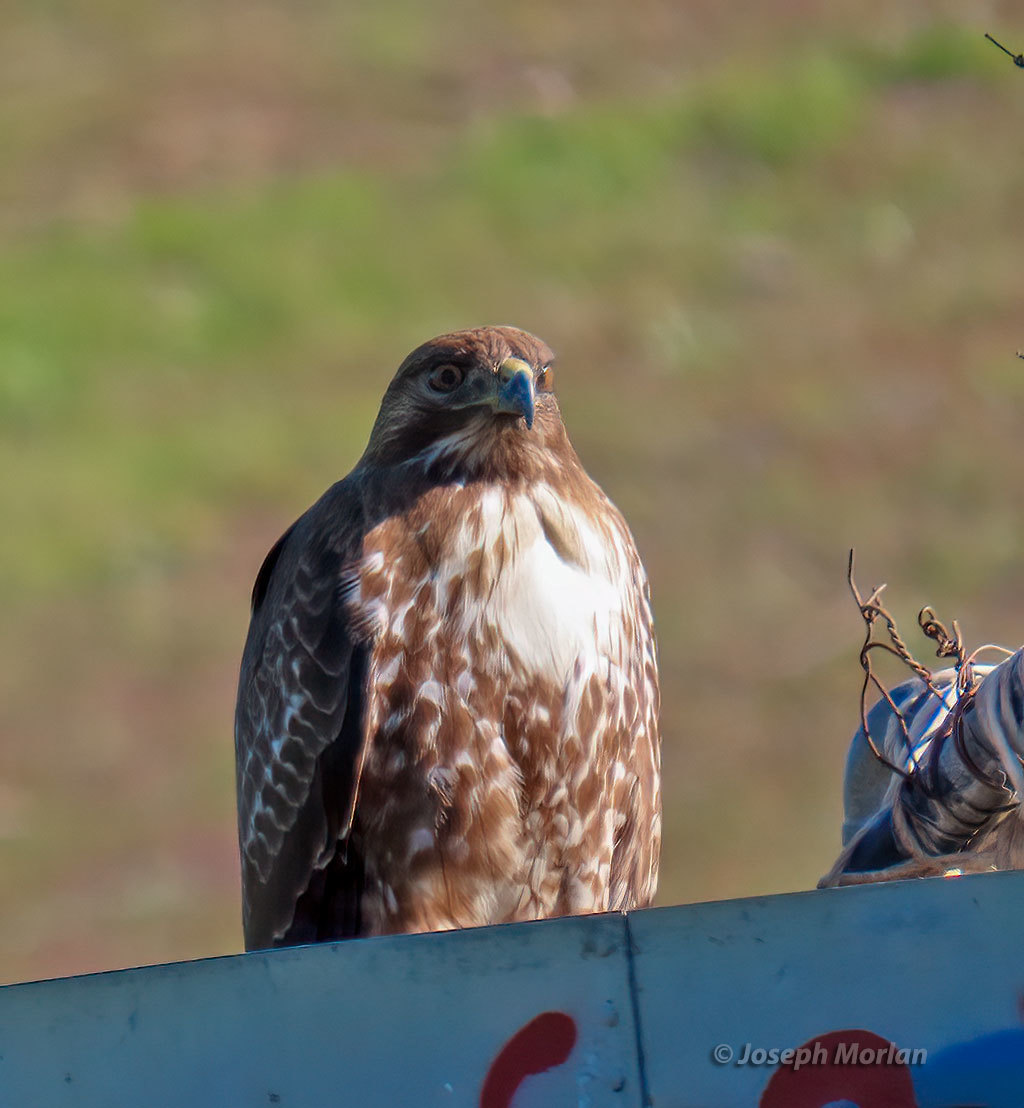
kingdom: Animalia
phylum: Chordata
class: Aves
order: Accipitriformes
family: Accipitridae
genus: Buteo
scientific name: Buteo jamaicensis
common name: Red-tailed hawk
